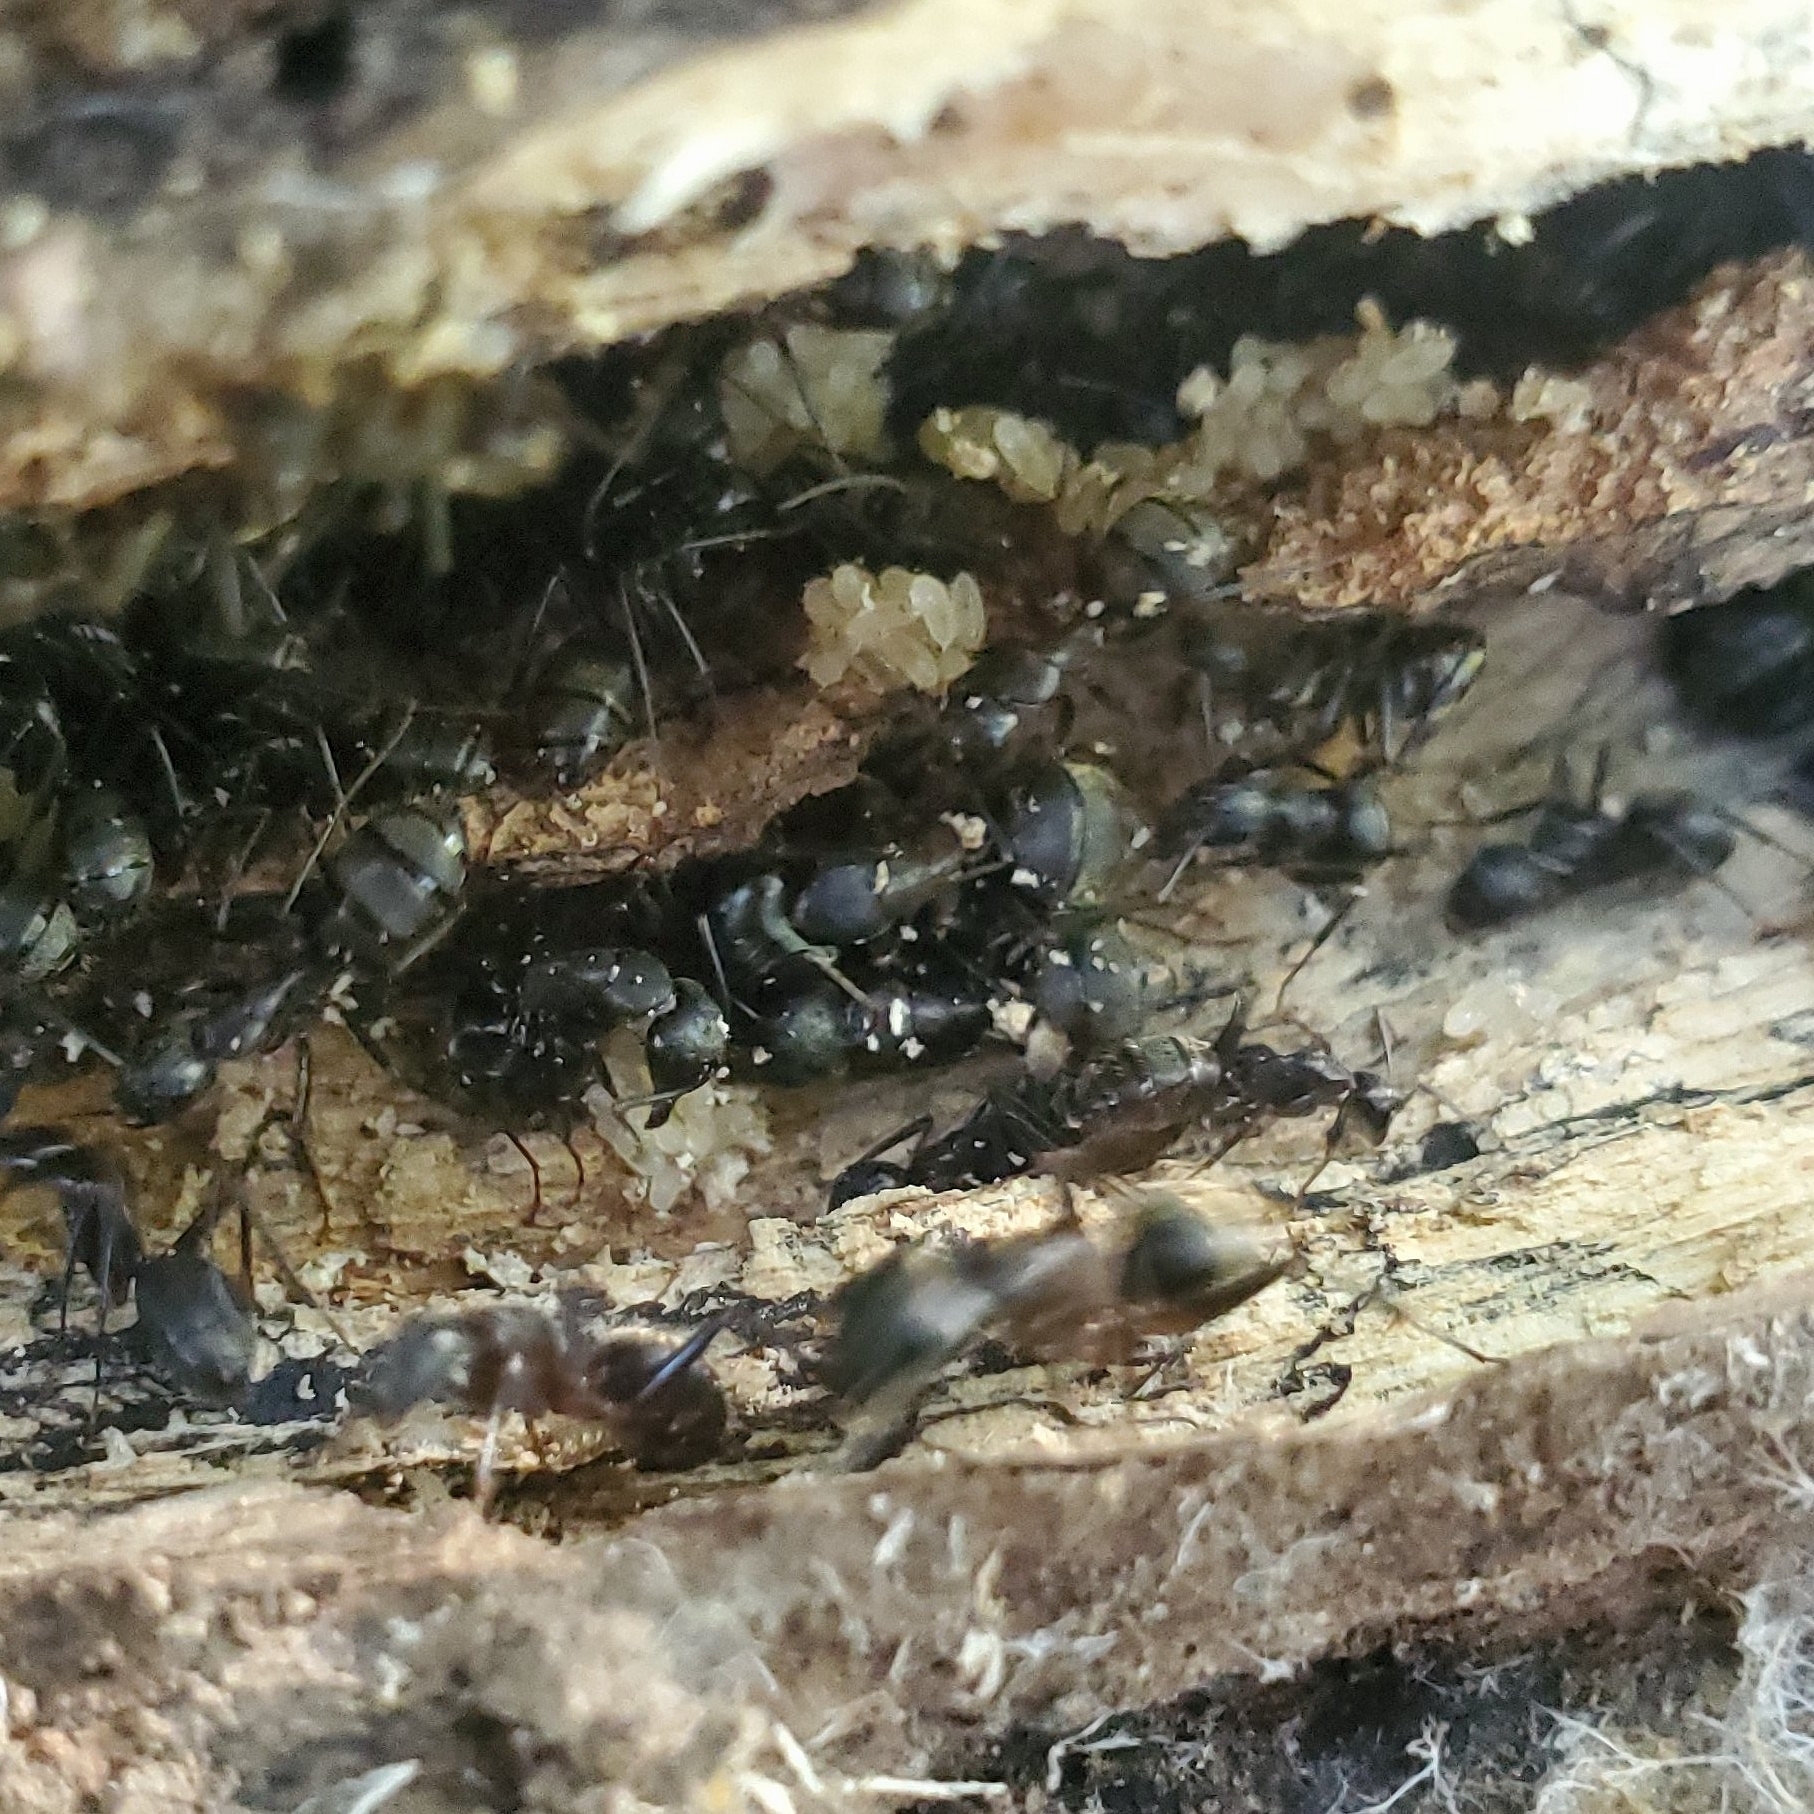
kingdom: Animalia
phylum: Arthropoda
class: Insecta
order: Hymenoptera
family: Formicidae
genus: Camponotus
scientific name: Camponotus chromaiodes
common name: Red carpenter ant
